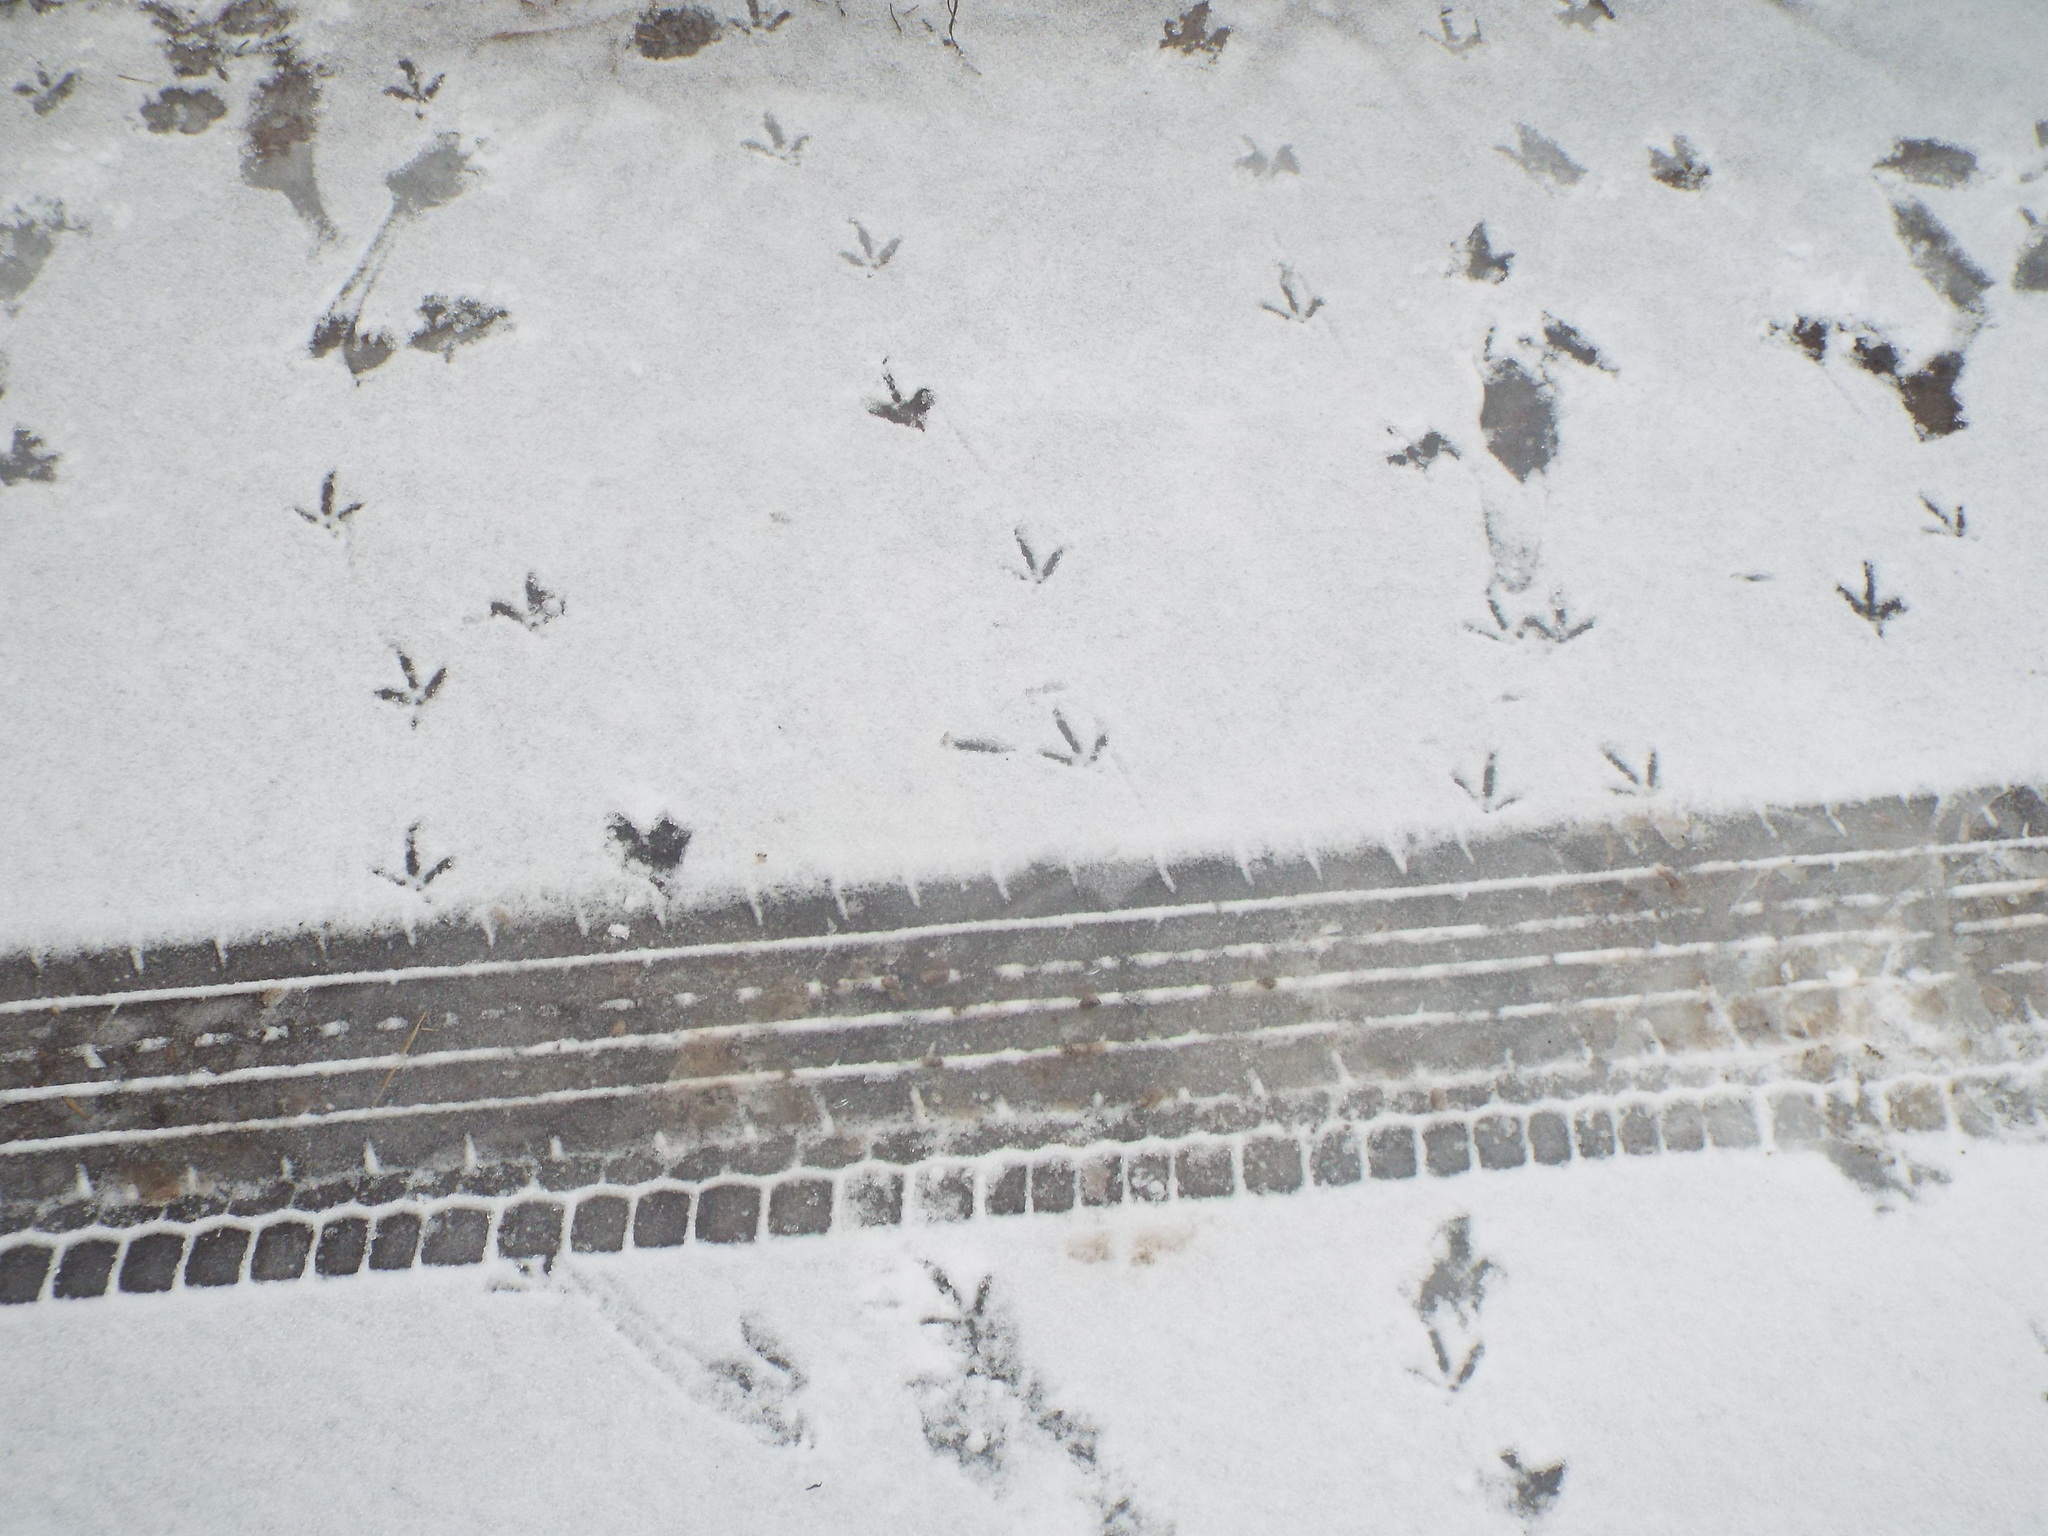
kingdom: Animalia
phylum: Chordata
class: Aves
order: Galliformes
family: Phasianidae
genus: Lyrurus
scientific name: Lyrurus tetrix
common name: Black grouse
